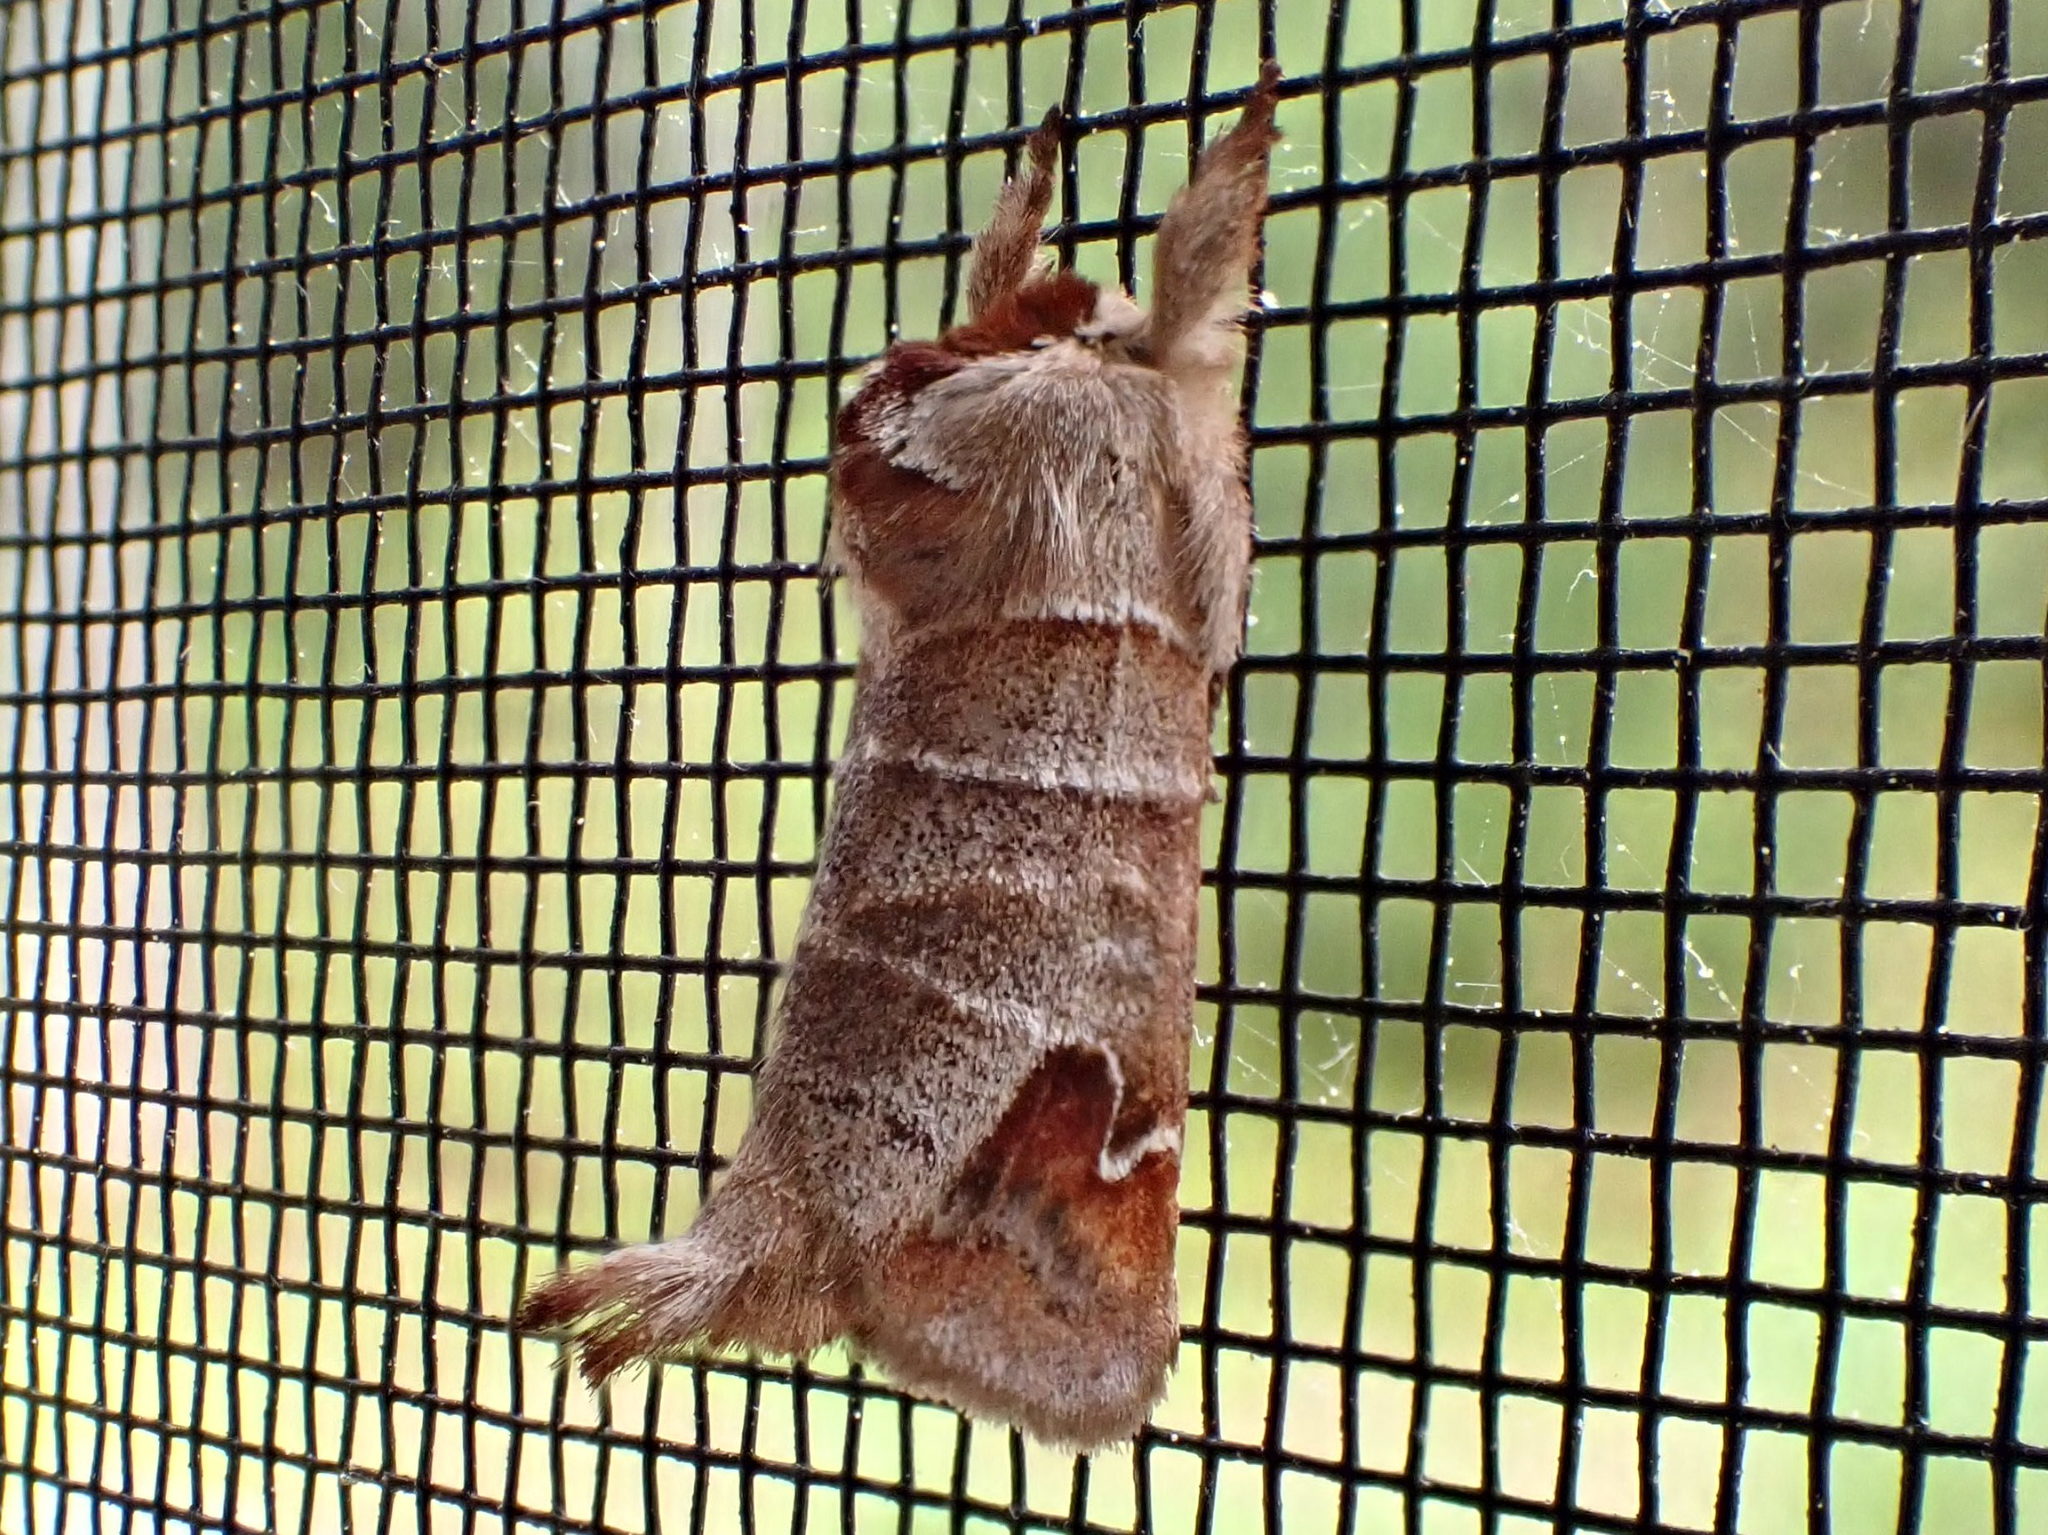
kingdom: Animalia
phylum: Arthropoda
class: Insecta
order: Lepidoptera
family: Notodontidae
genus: Clostera
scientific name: Clostera albosigma
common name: Sigmoid prominent
